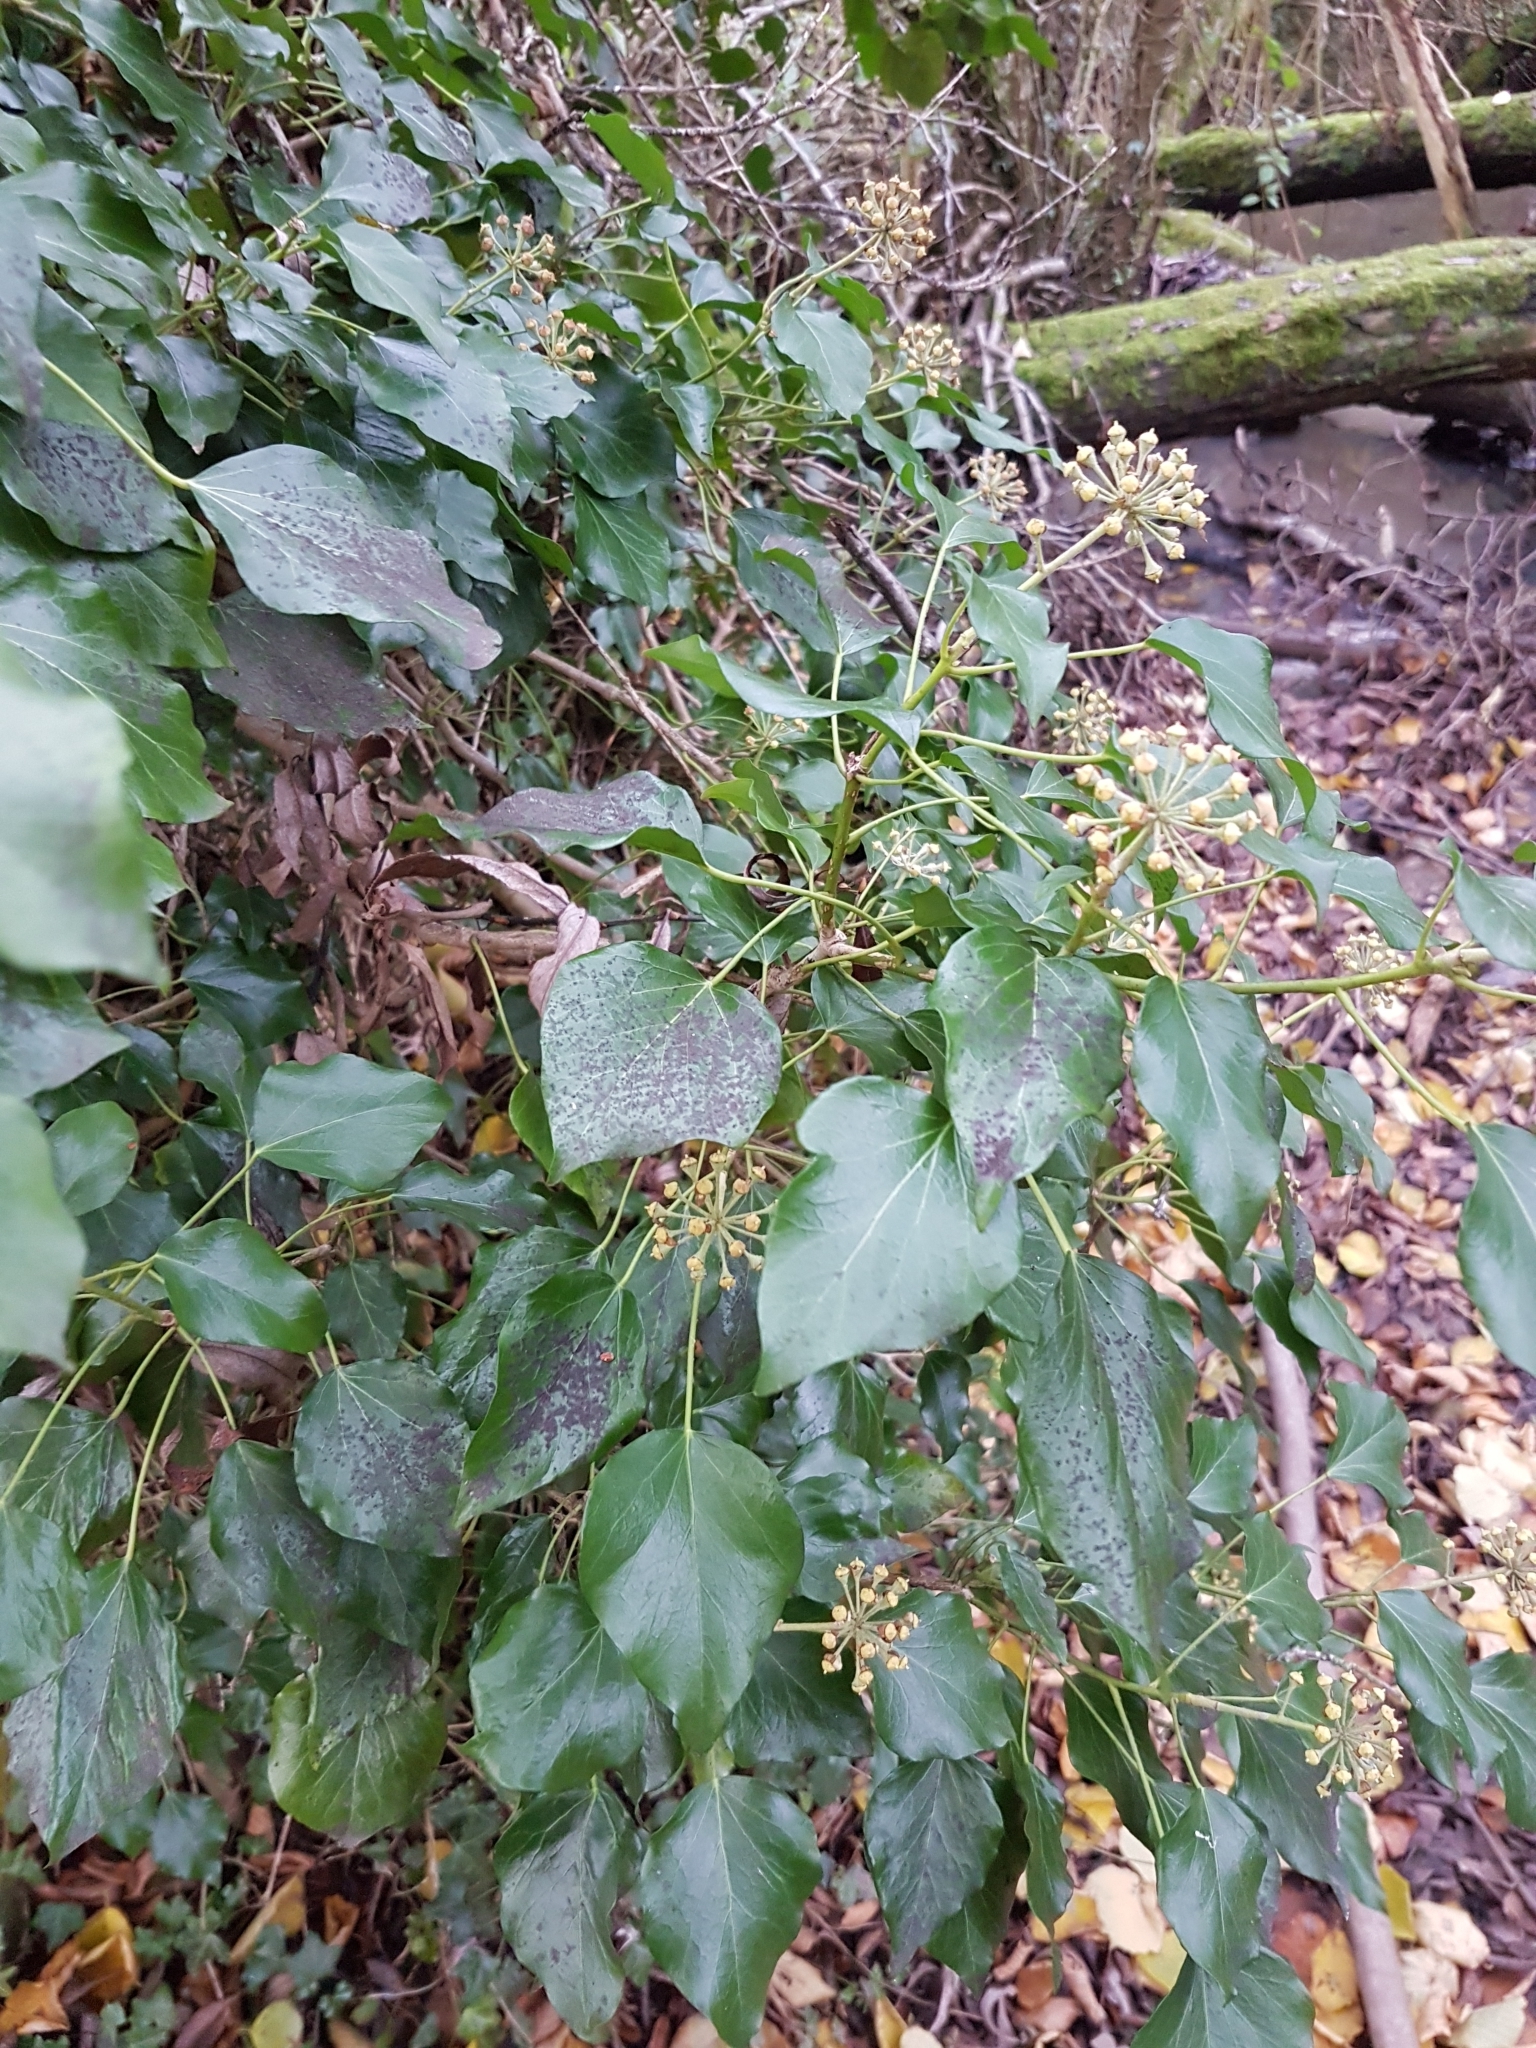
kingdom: Plantae
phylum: Tracheophyta
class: Magnoliopsida
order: Apiales
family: Araliaceae
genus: Hedera
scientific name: Hedera helix
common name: Ivy
